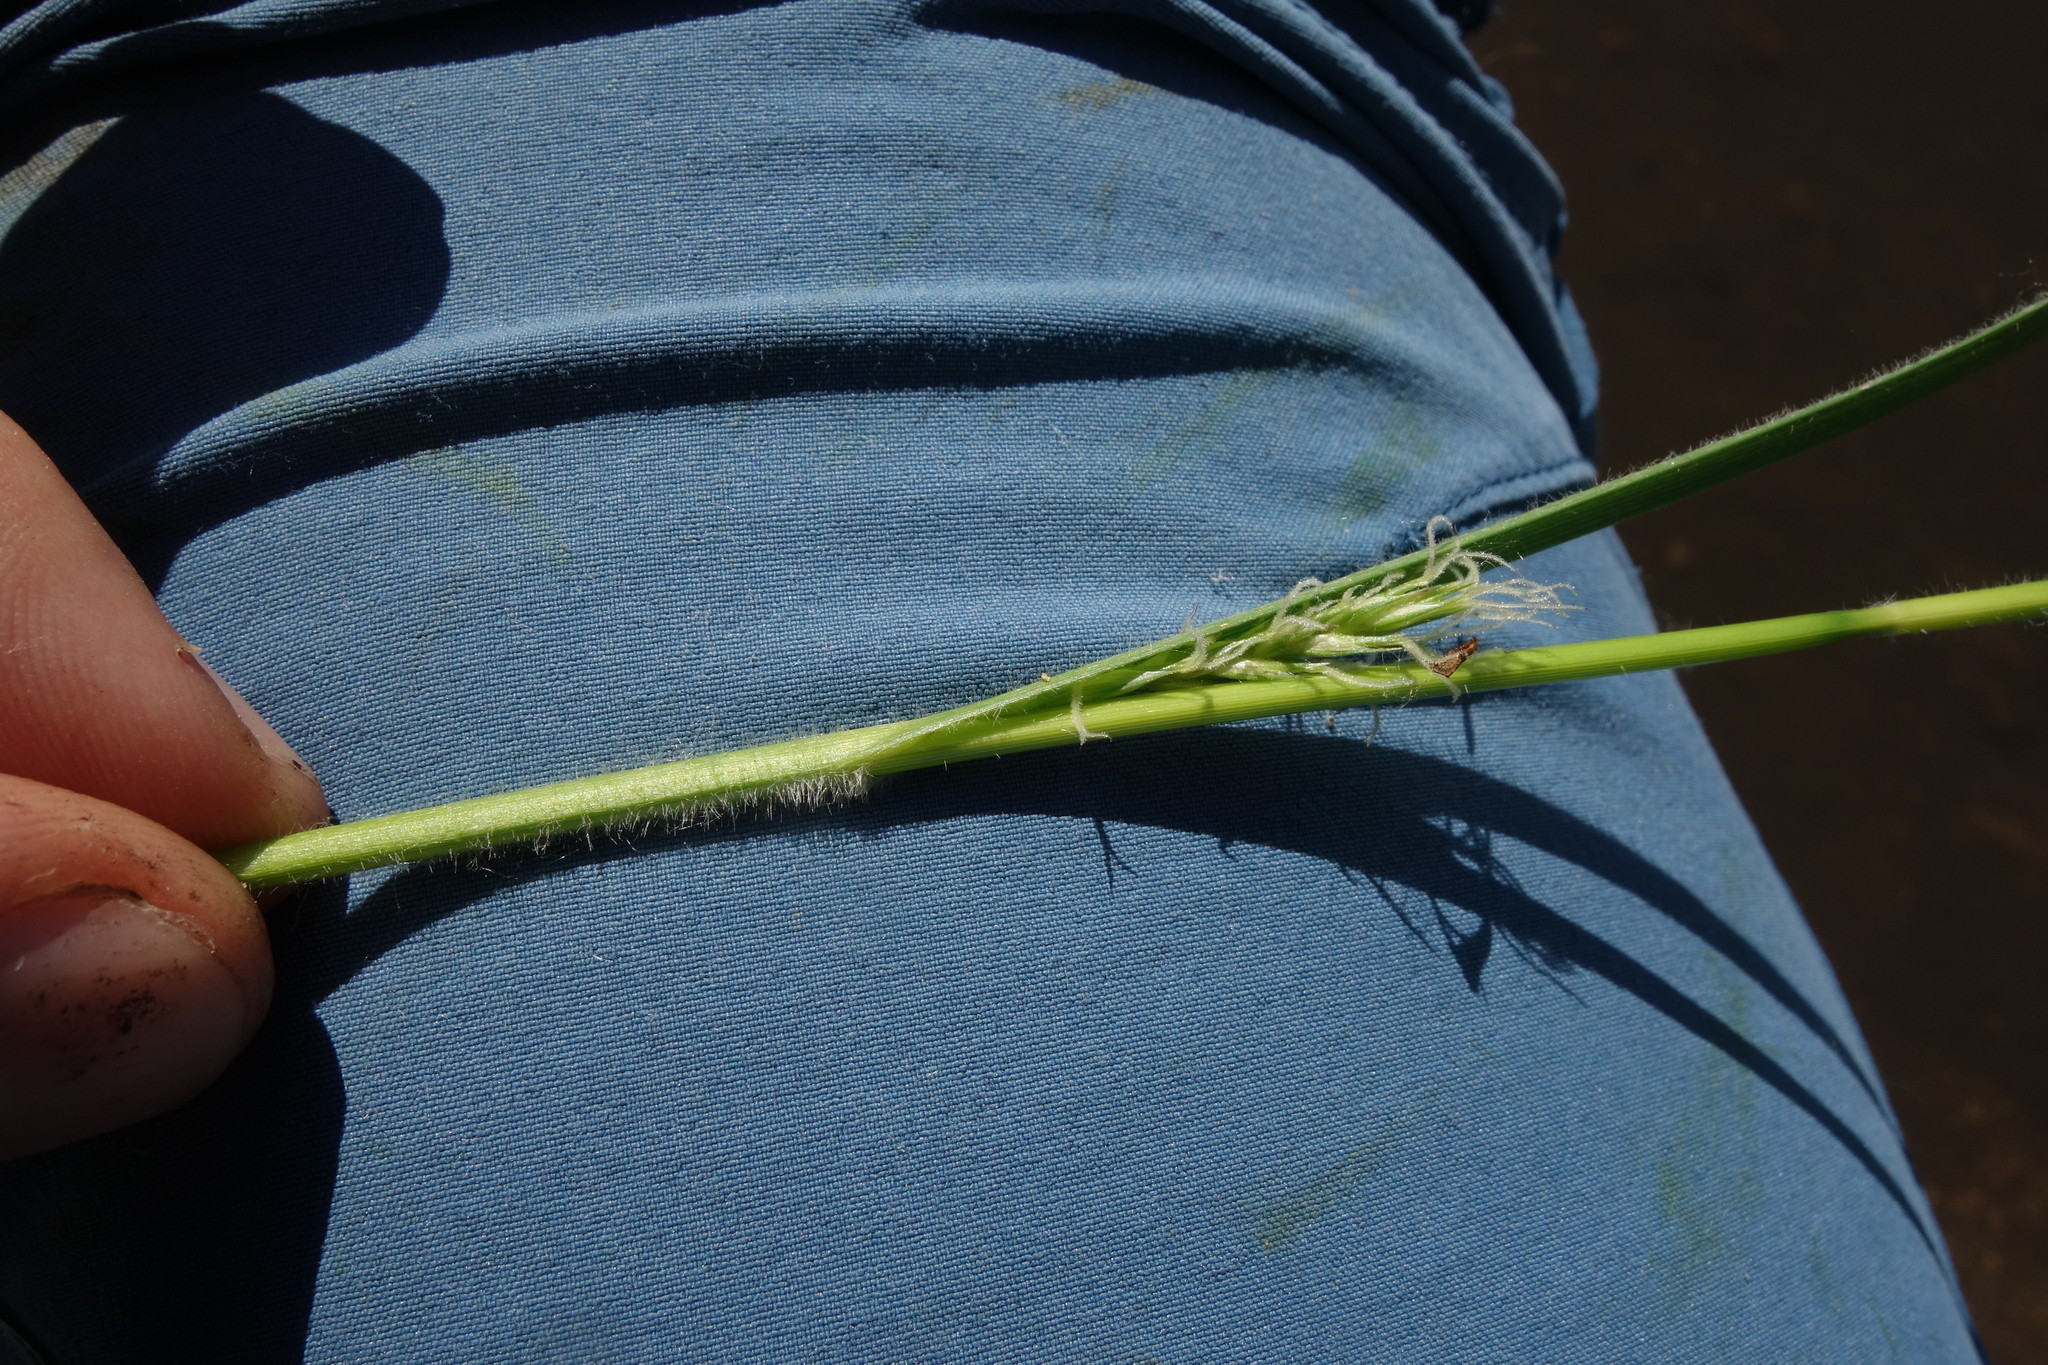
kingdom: Plantae
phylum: Tracheophyta
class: Liliopsida
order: Poales
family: Cyperaceae
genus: Carex
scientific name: Carex hirta
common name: Hairy sedge
